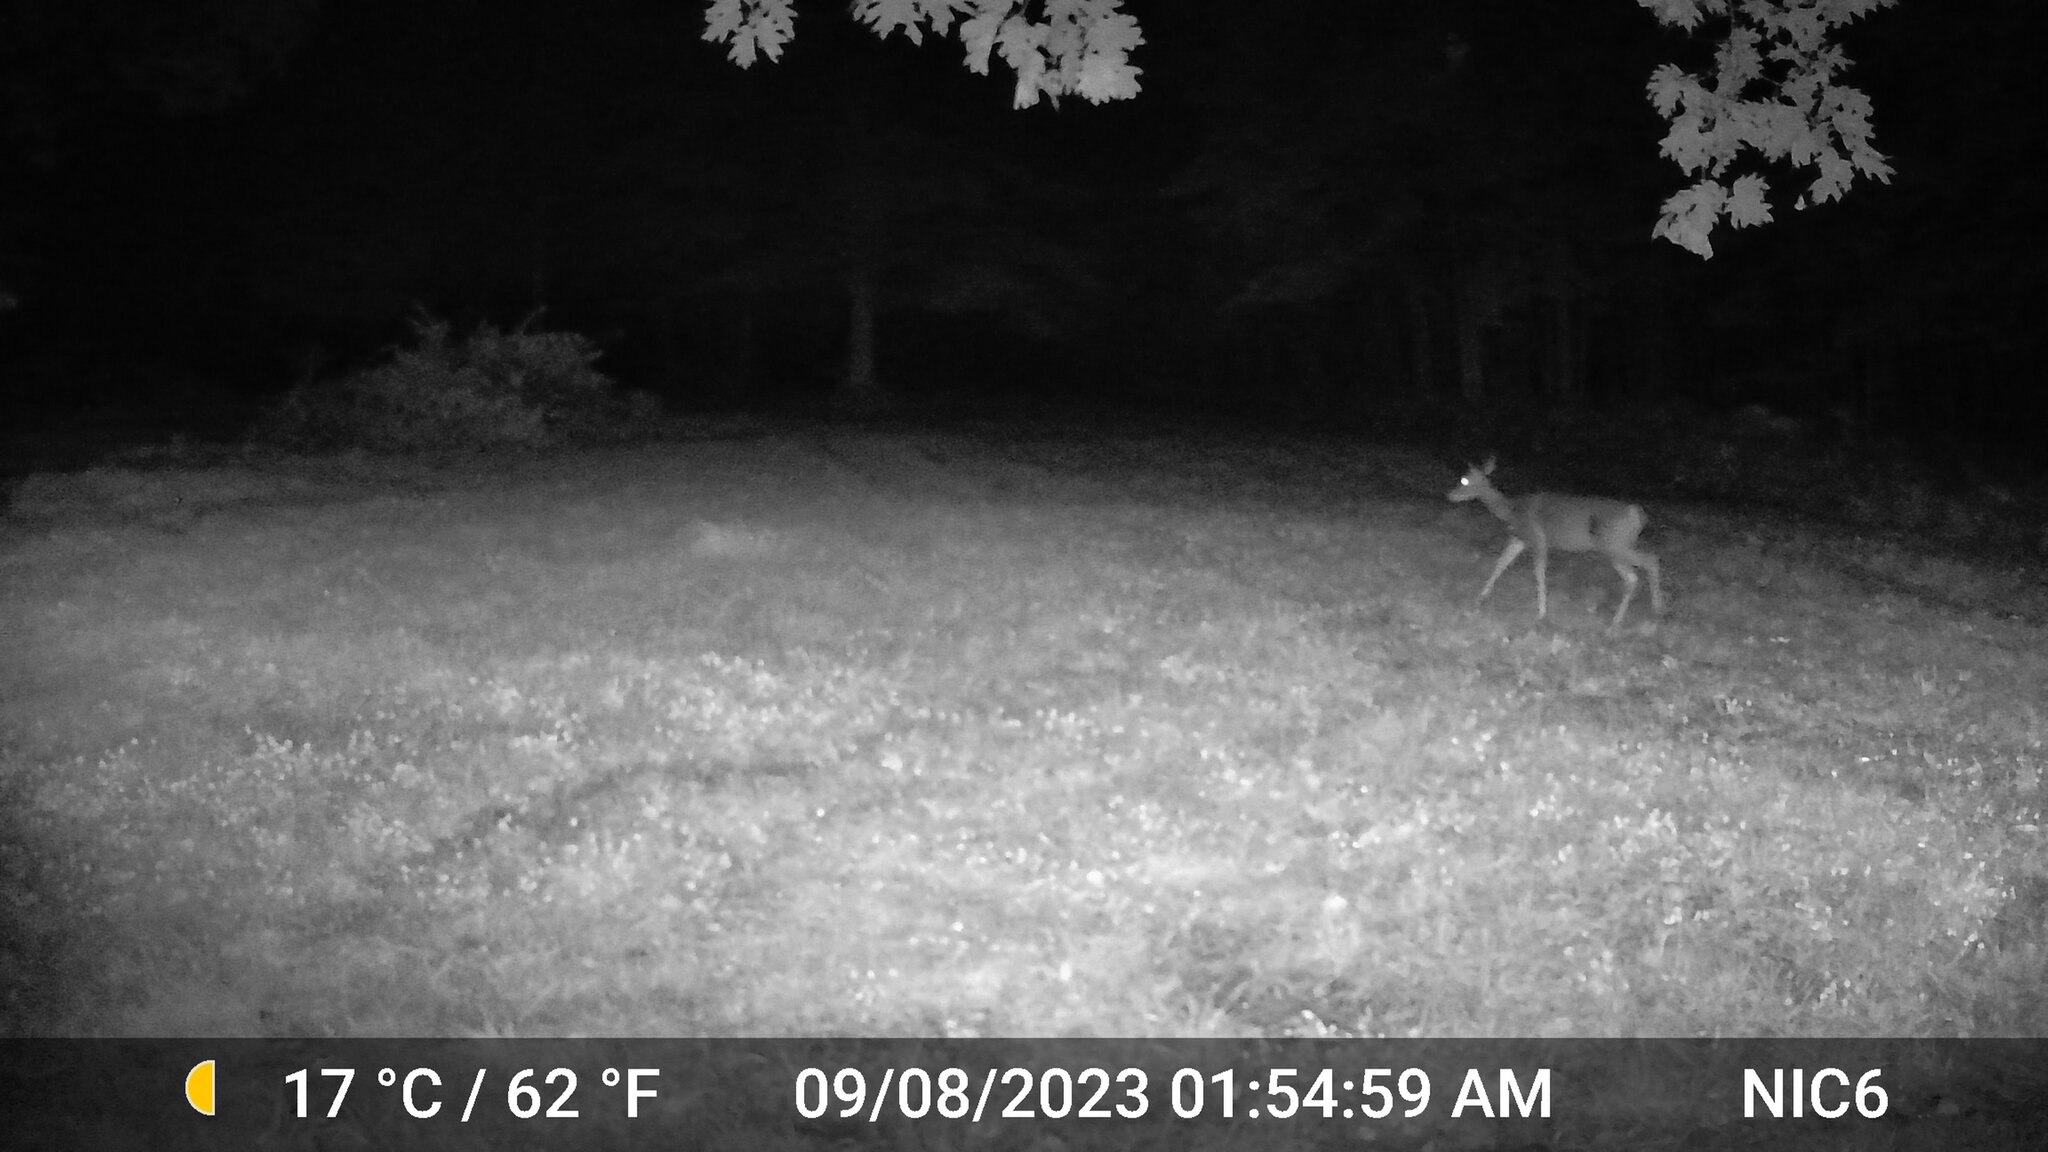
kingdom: Animalia
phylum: Chordata
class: Mammalia
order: Artiodactyla
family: Cervidae
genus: Odocoileus
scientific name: Odocoileus virginianus
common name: White-tailed deer
